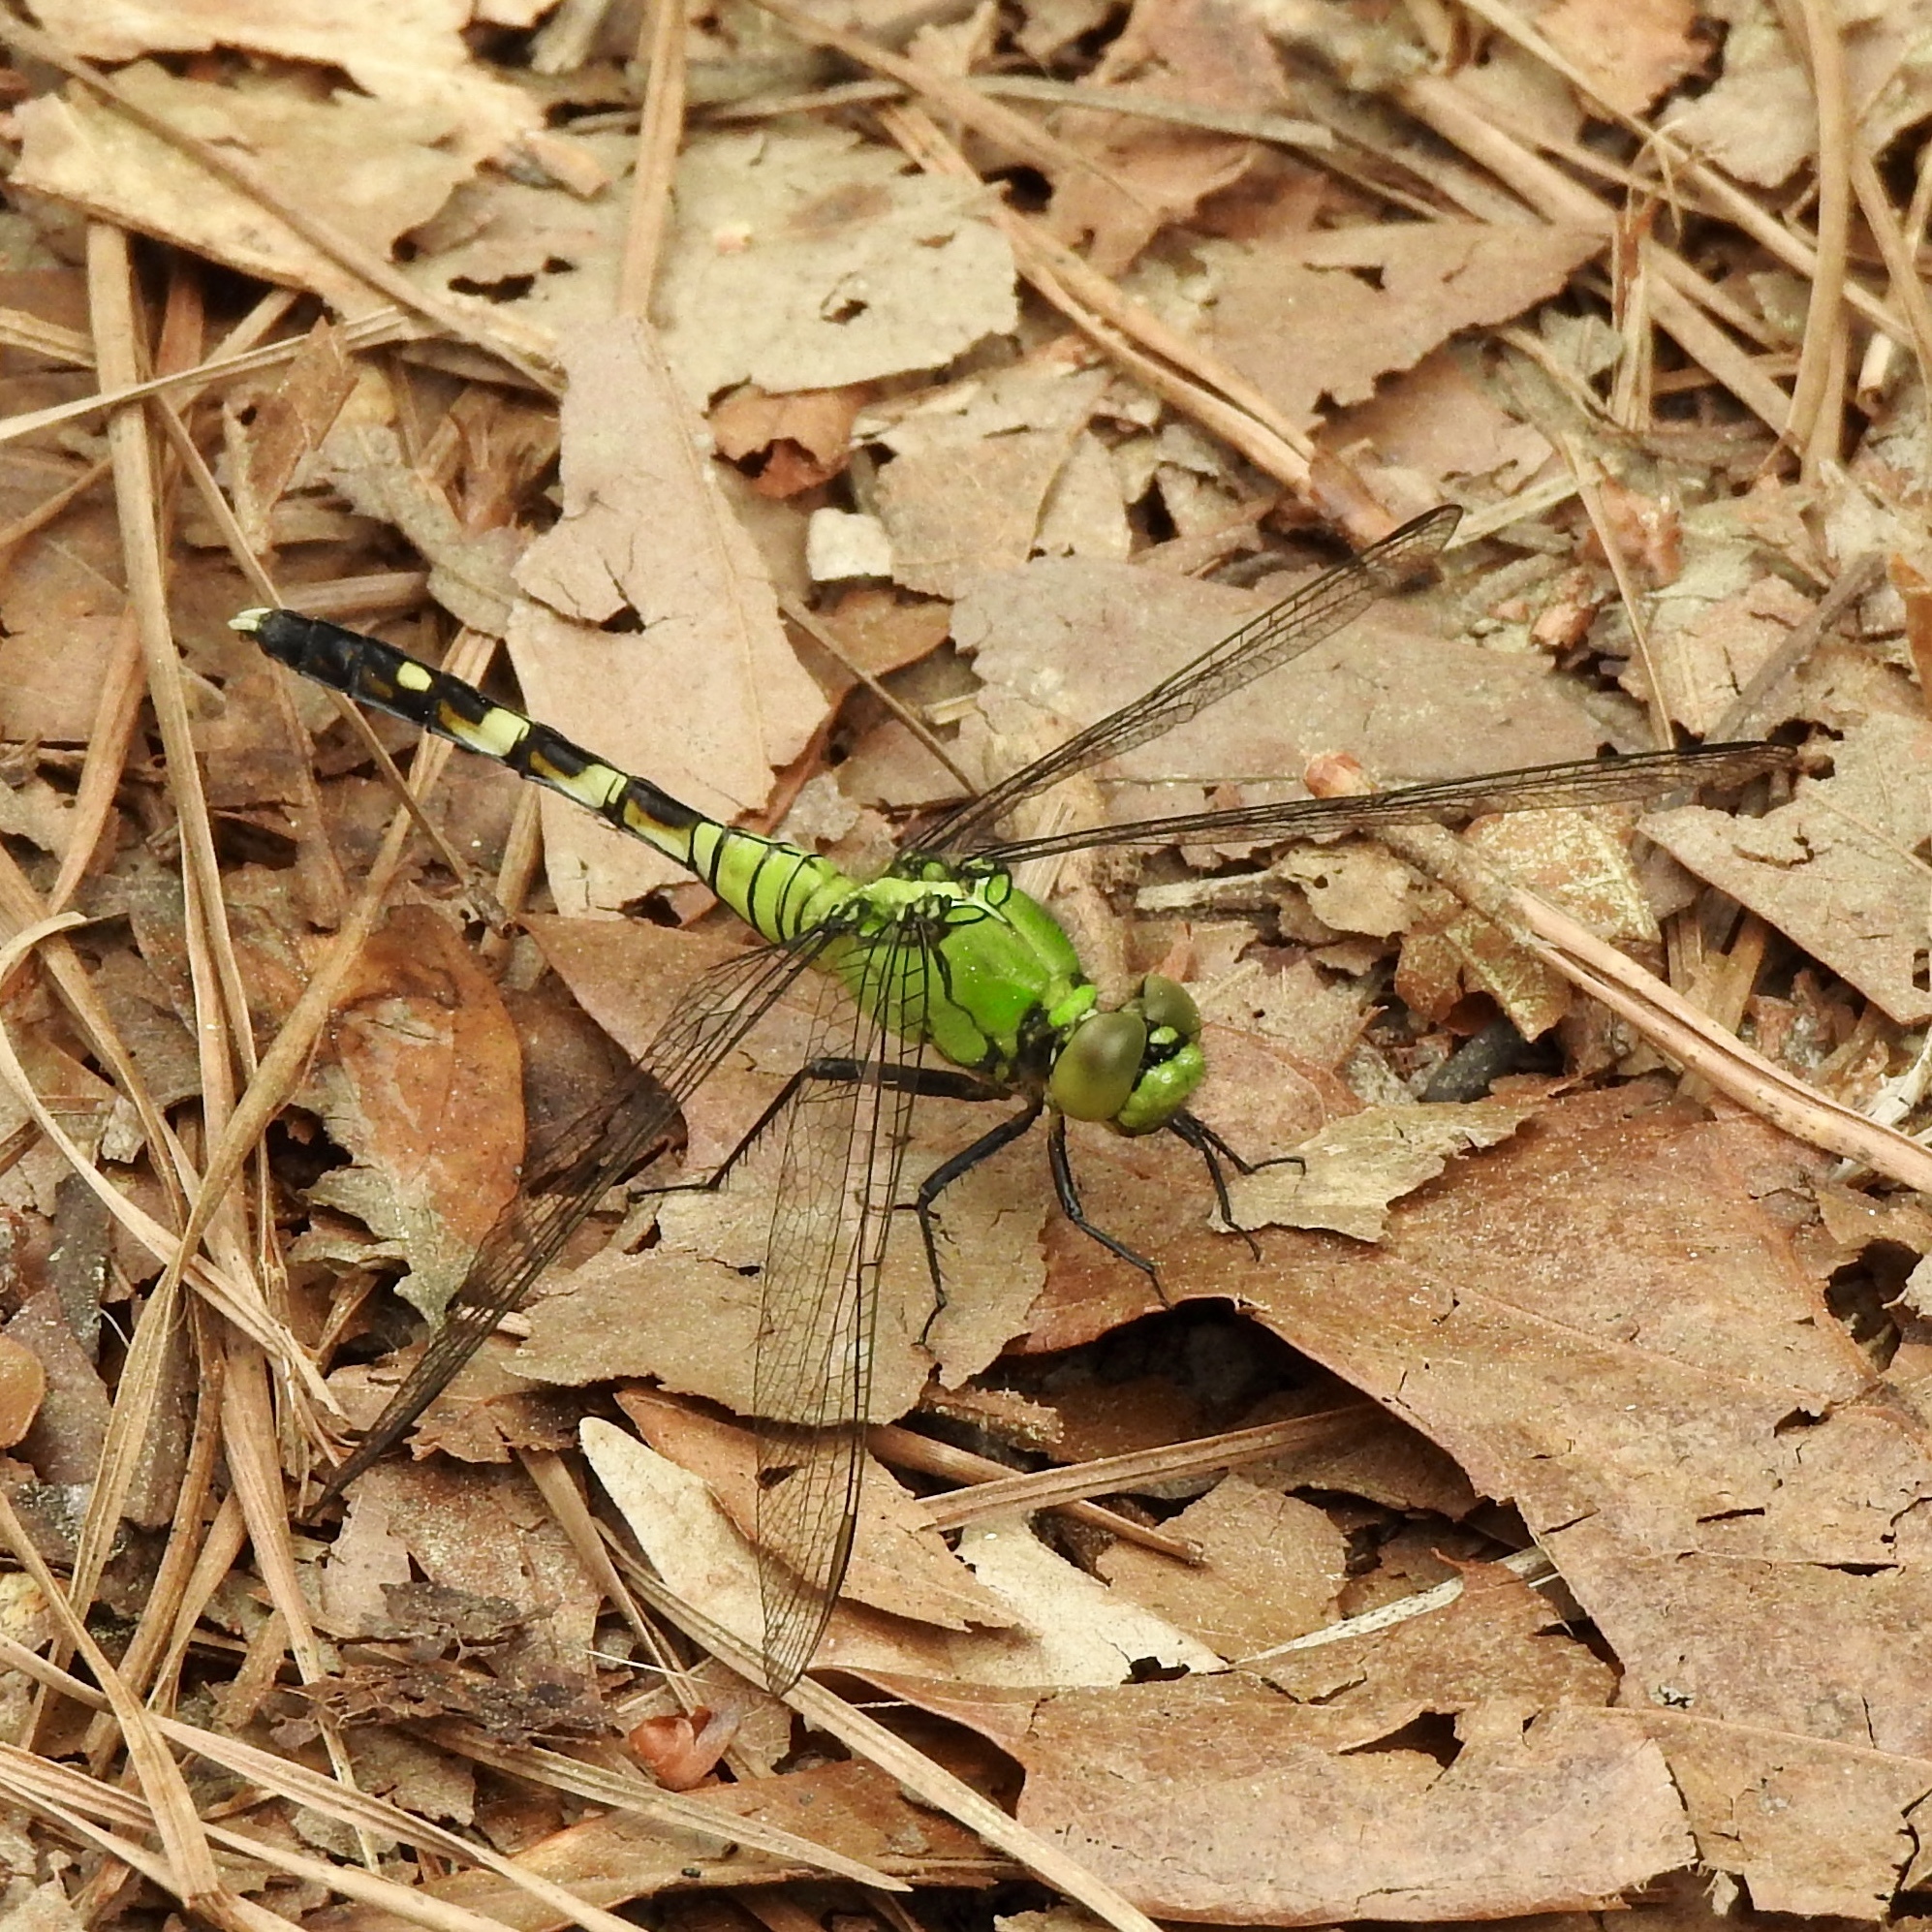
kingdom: Animalia
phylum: Arthropoda
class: Insecta
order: Odonata
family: Libellulidae
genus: Erythemis
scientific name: Erythemis simplicicollis
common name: Eastern pondhawk
